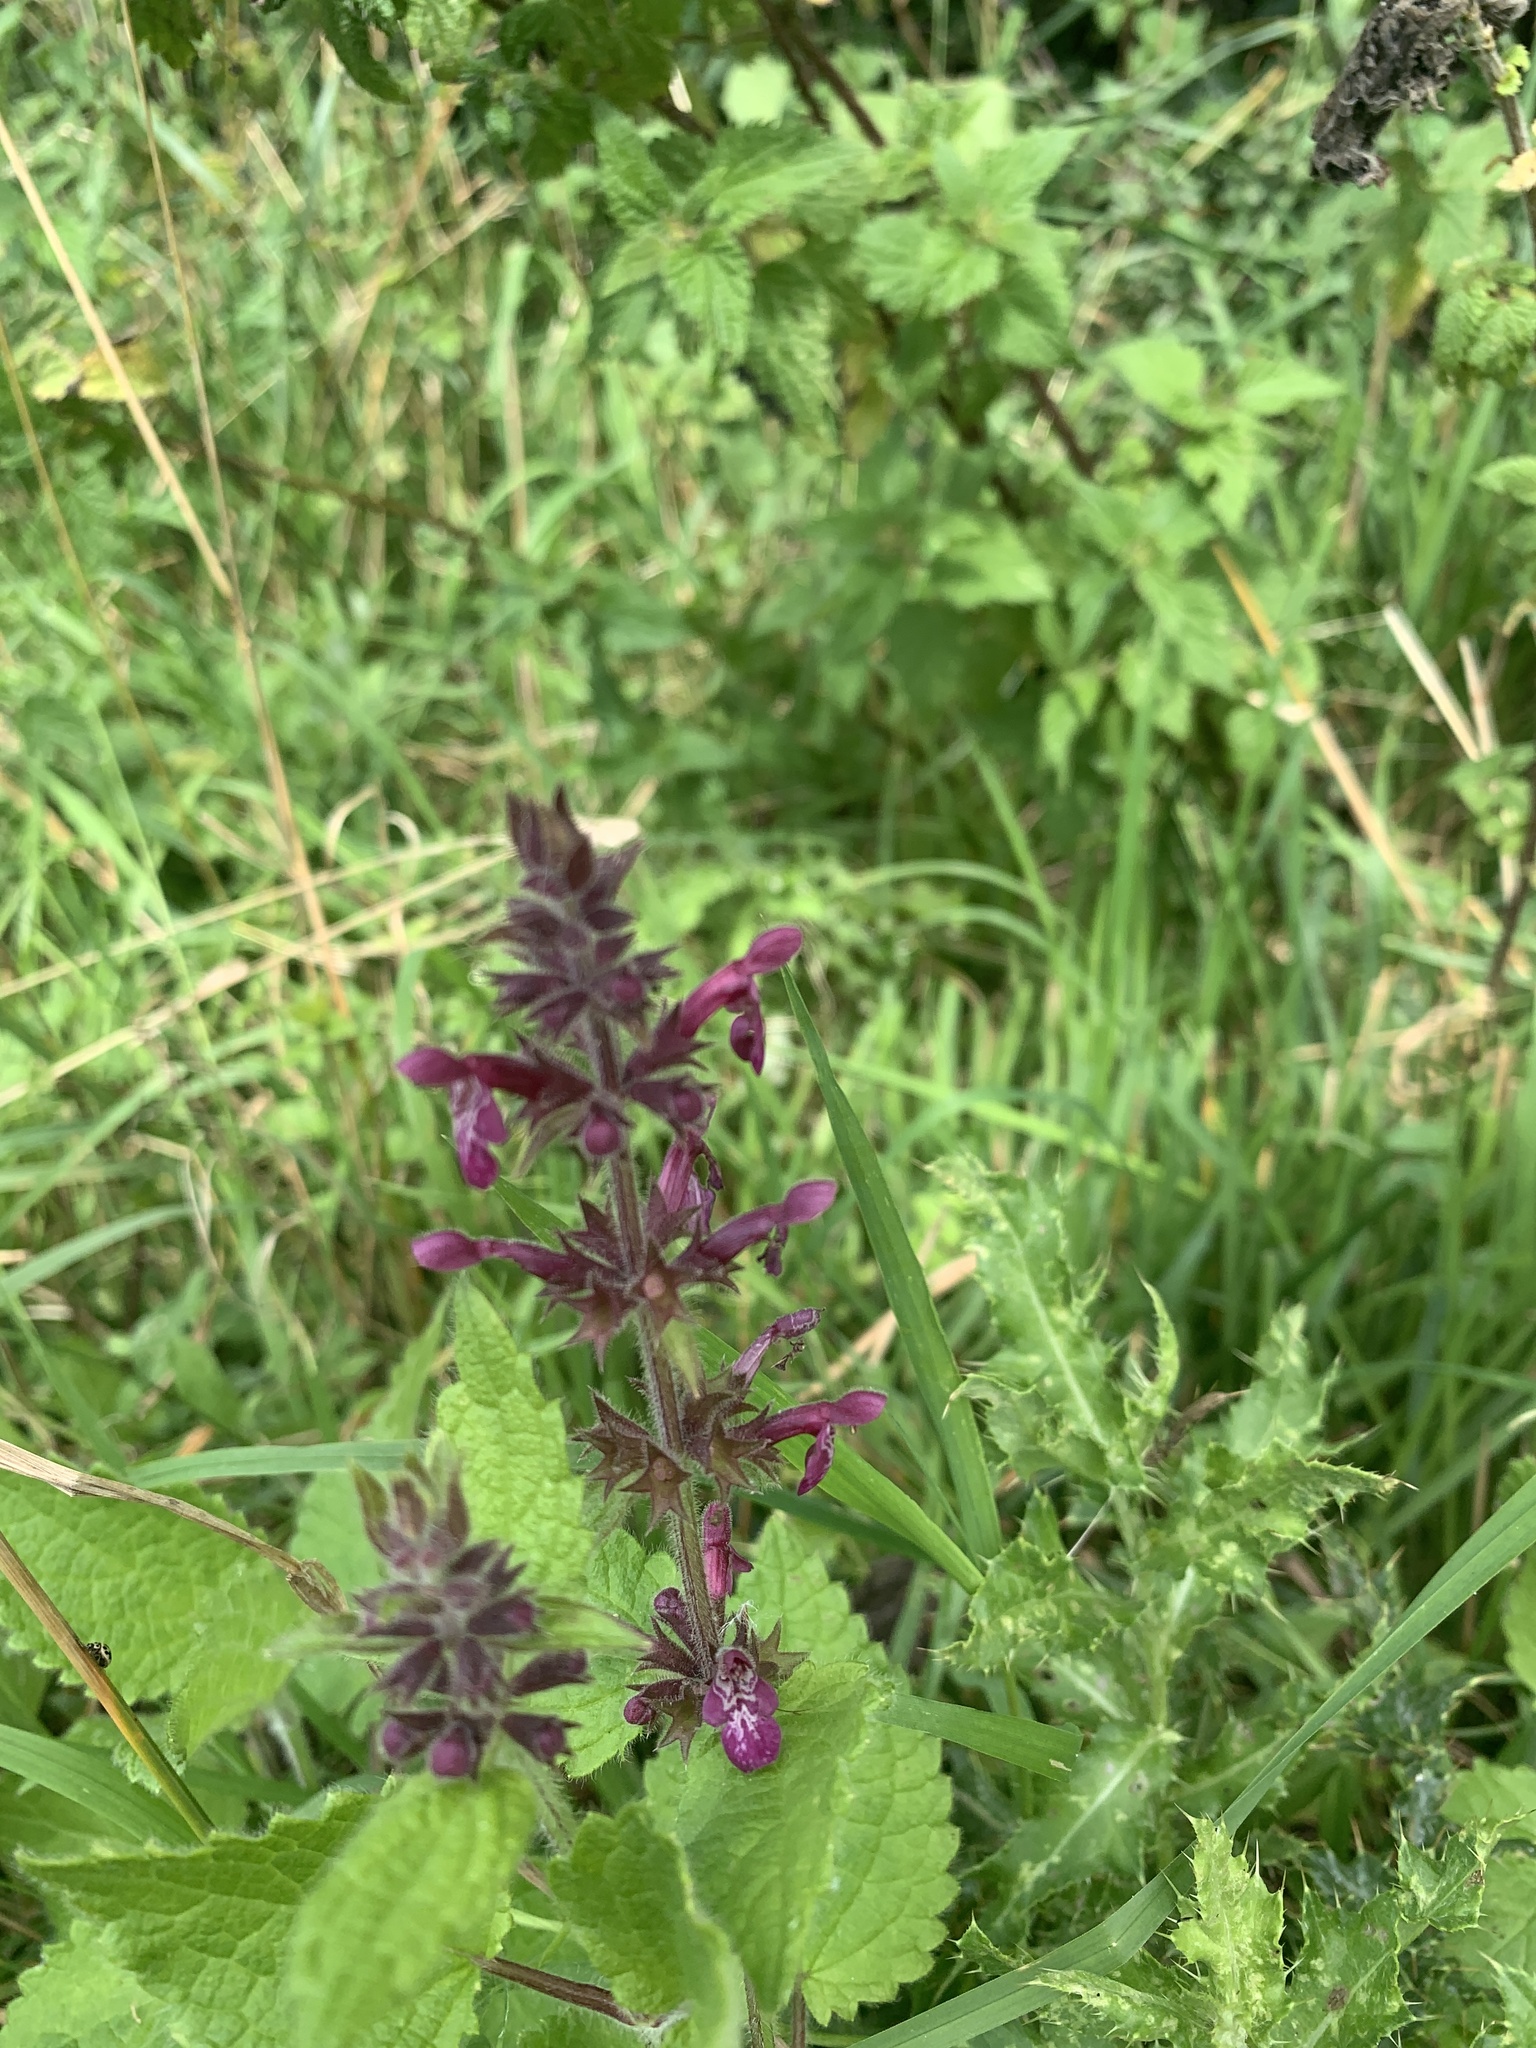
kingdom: Plantae
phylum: Tracheophyta
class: Magnoliopsida
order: Lamiales
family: Lamiaceae
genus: Stachys
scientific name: Stachys sylvatica
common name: Hedge woundwort
